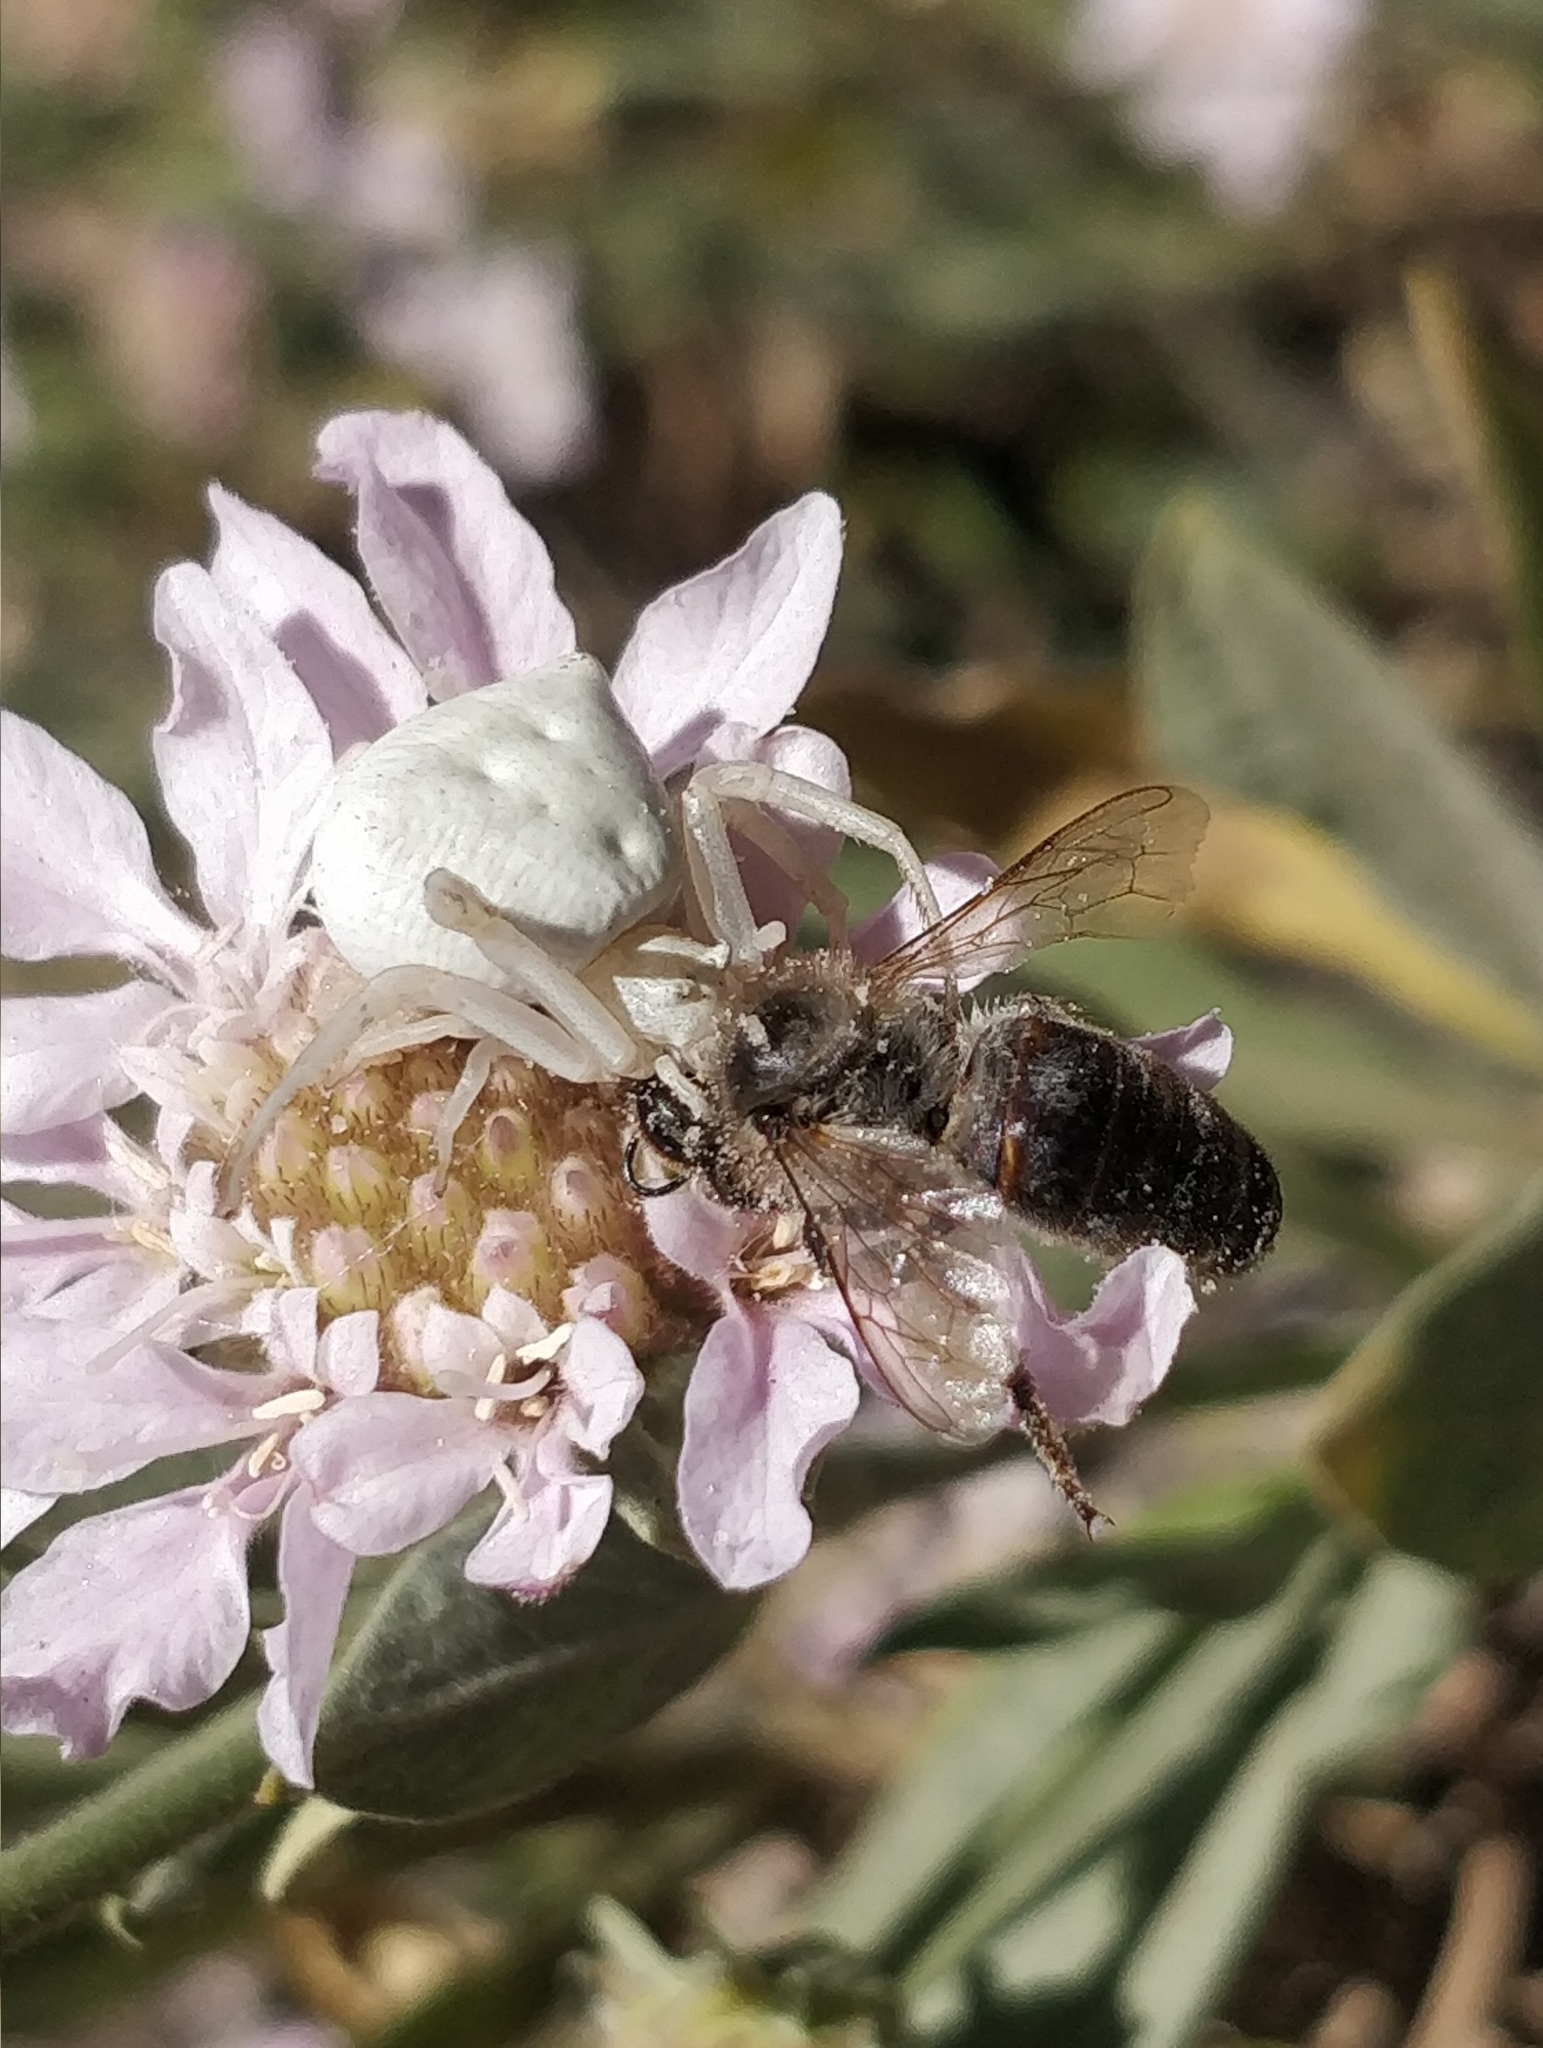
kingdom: Animalia
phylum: Arthropoda
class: Arachnida
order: Araneae
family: Thomisidae
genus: Thomisus
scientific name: Thomisus onustus
